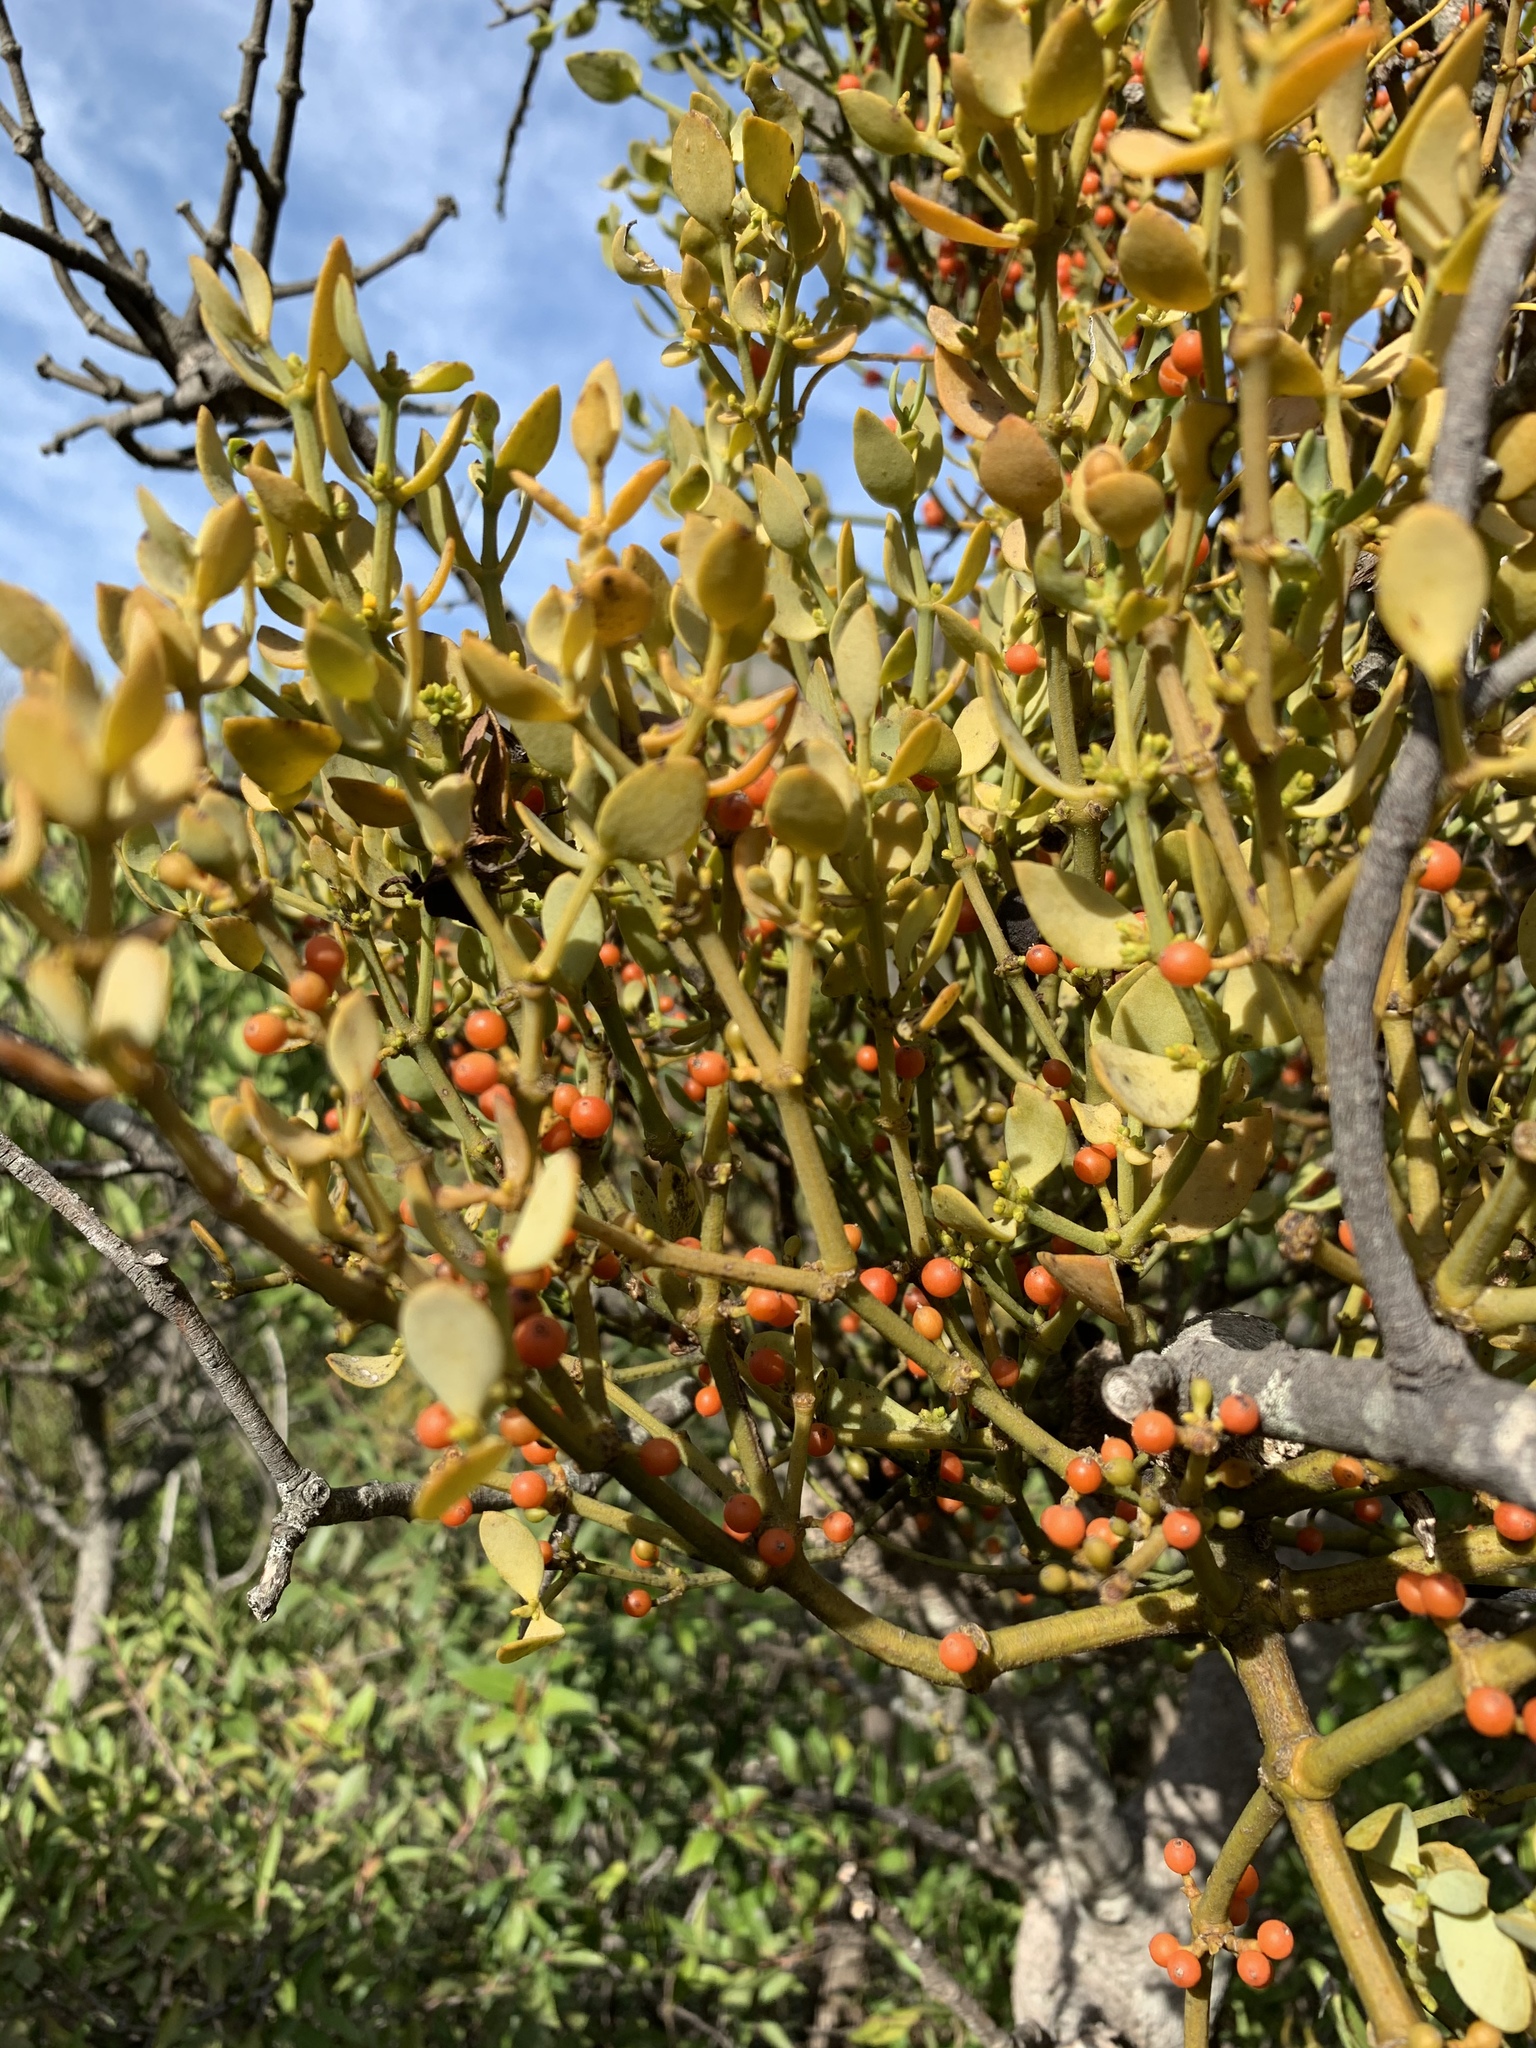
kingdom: Plantae
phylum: Tracheophyta
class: Magnoliopsida
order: Santalales
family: Viscaceae
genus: Viscum
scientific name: Viscum rotundifolium
